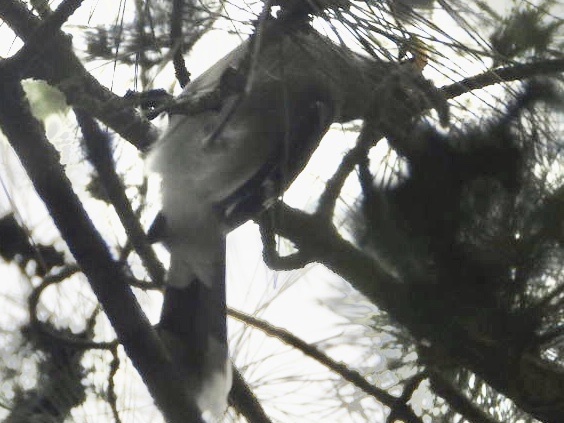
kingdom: Animalia
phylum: Chordata
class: Aves
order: Passeriformes
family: Corvidae
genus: Cyanocitta
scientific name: Cyanocitta cristata
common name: Blue jay
